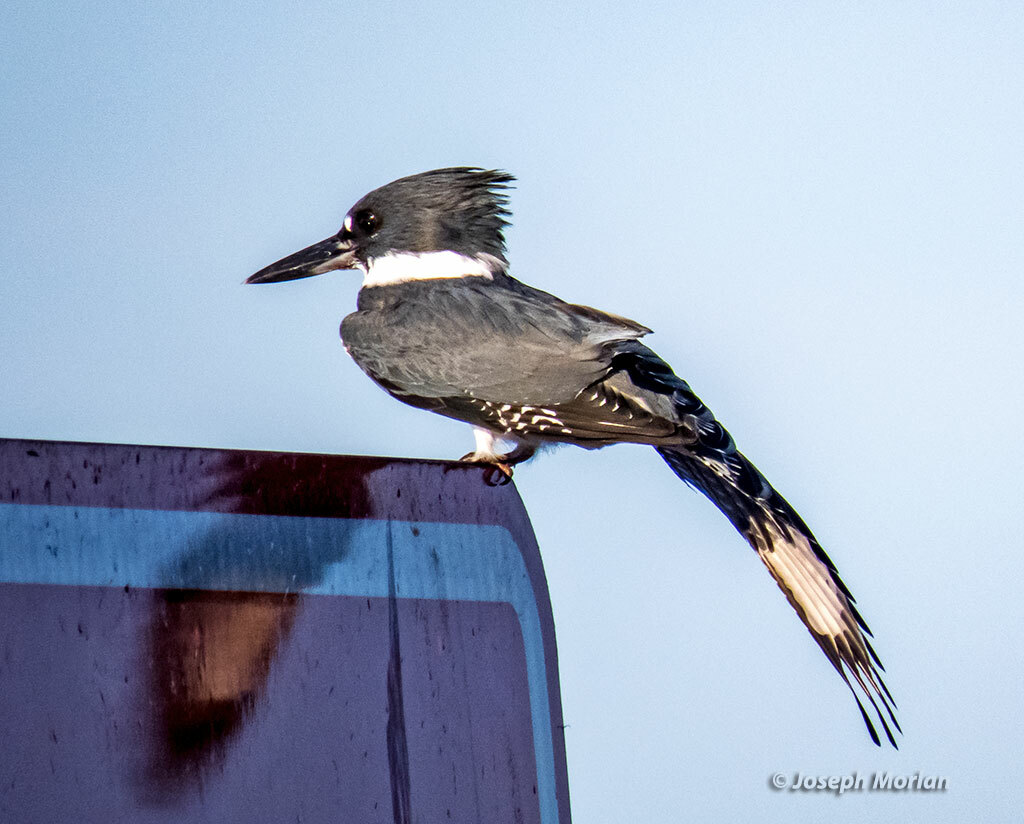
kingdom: Animalia
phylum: Chordata
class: Aves
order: Coraciiformes
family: Alcedinidae
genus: Megaceryle
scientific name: Megaceryle alcyon
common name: Belted kingfisher
